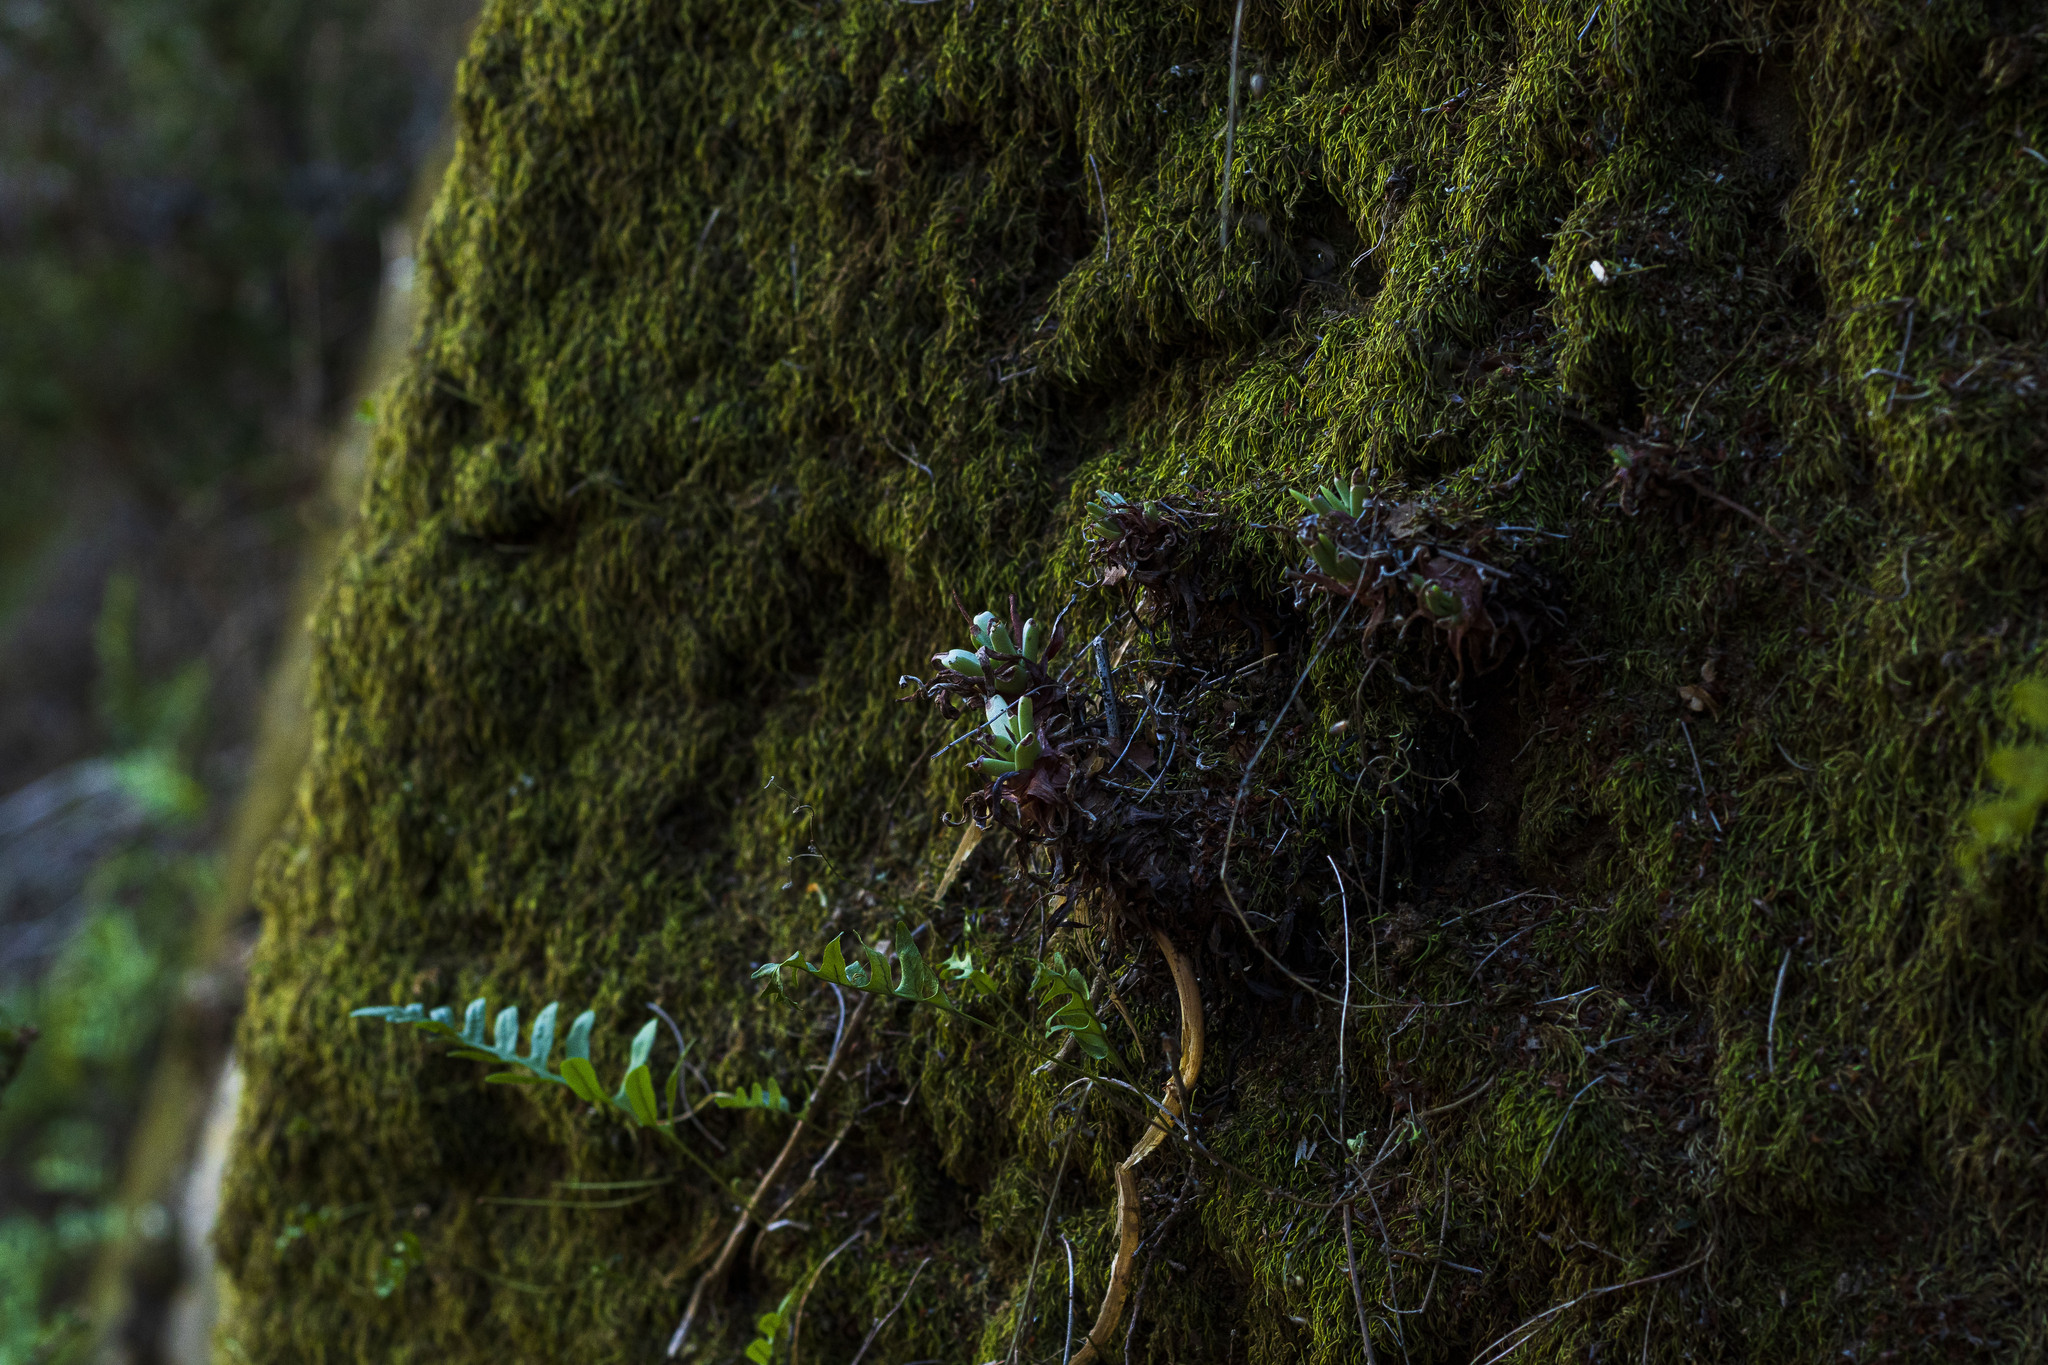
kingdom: Plantae
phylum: Tracheophyta
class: Magnoliopsida
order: Saxifragales
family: Crassulaceae
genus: Dudleya
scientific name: Dudleya edulis
